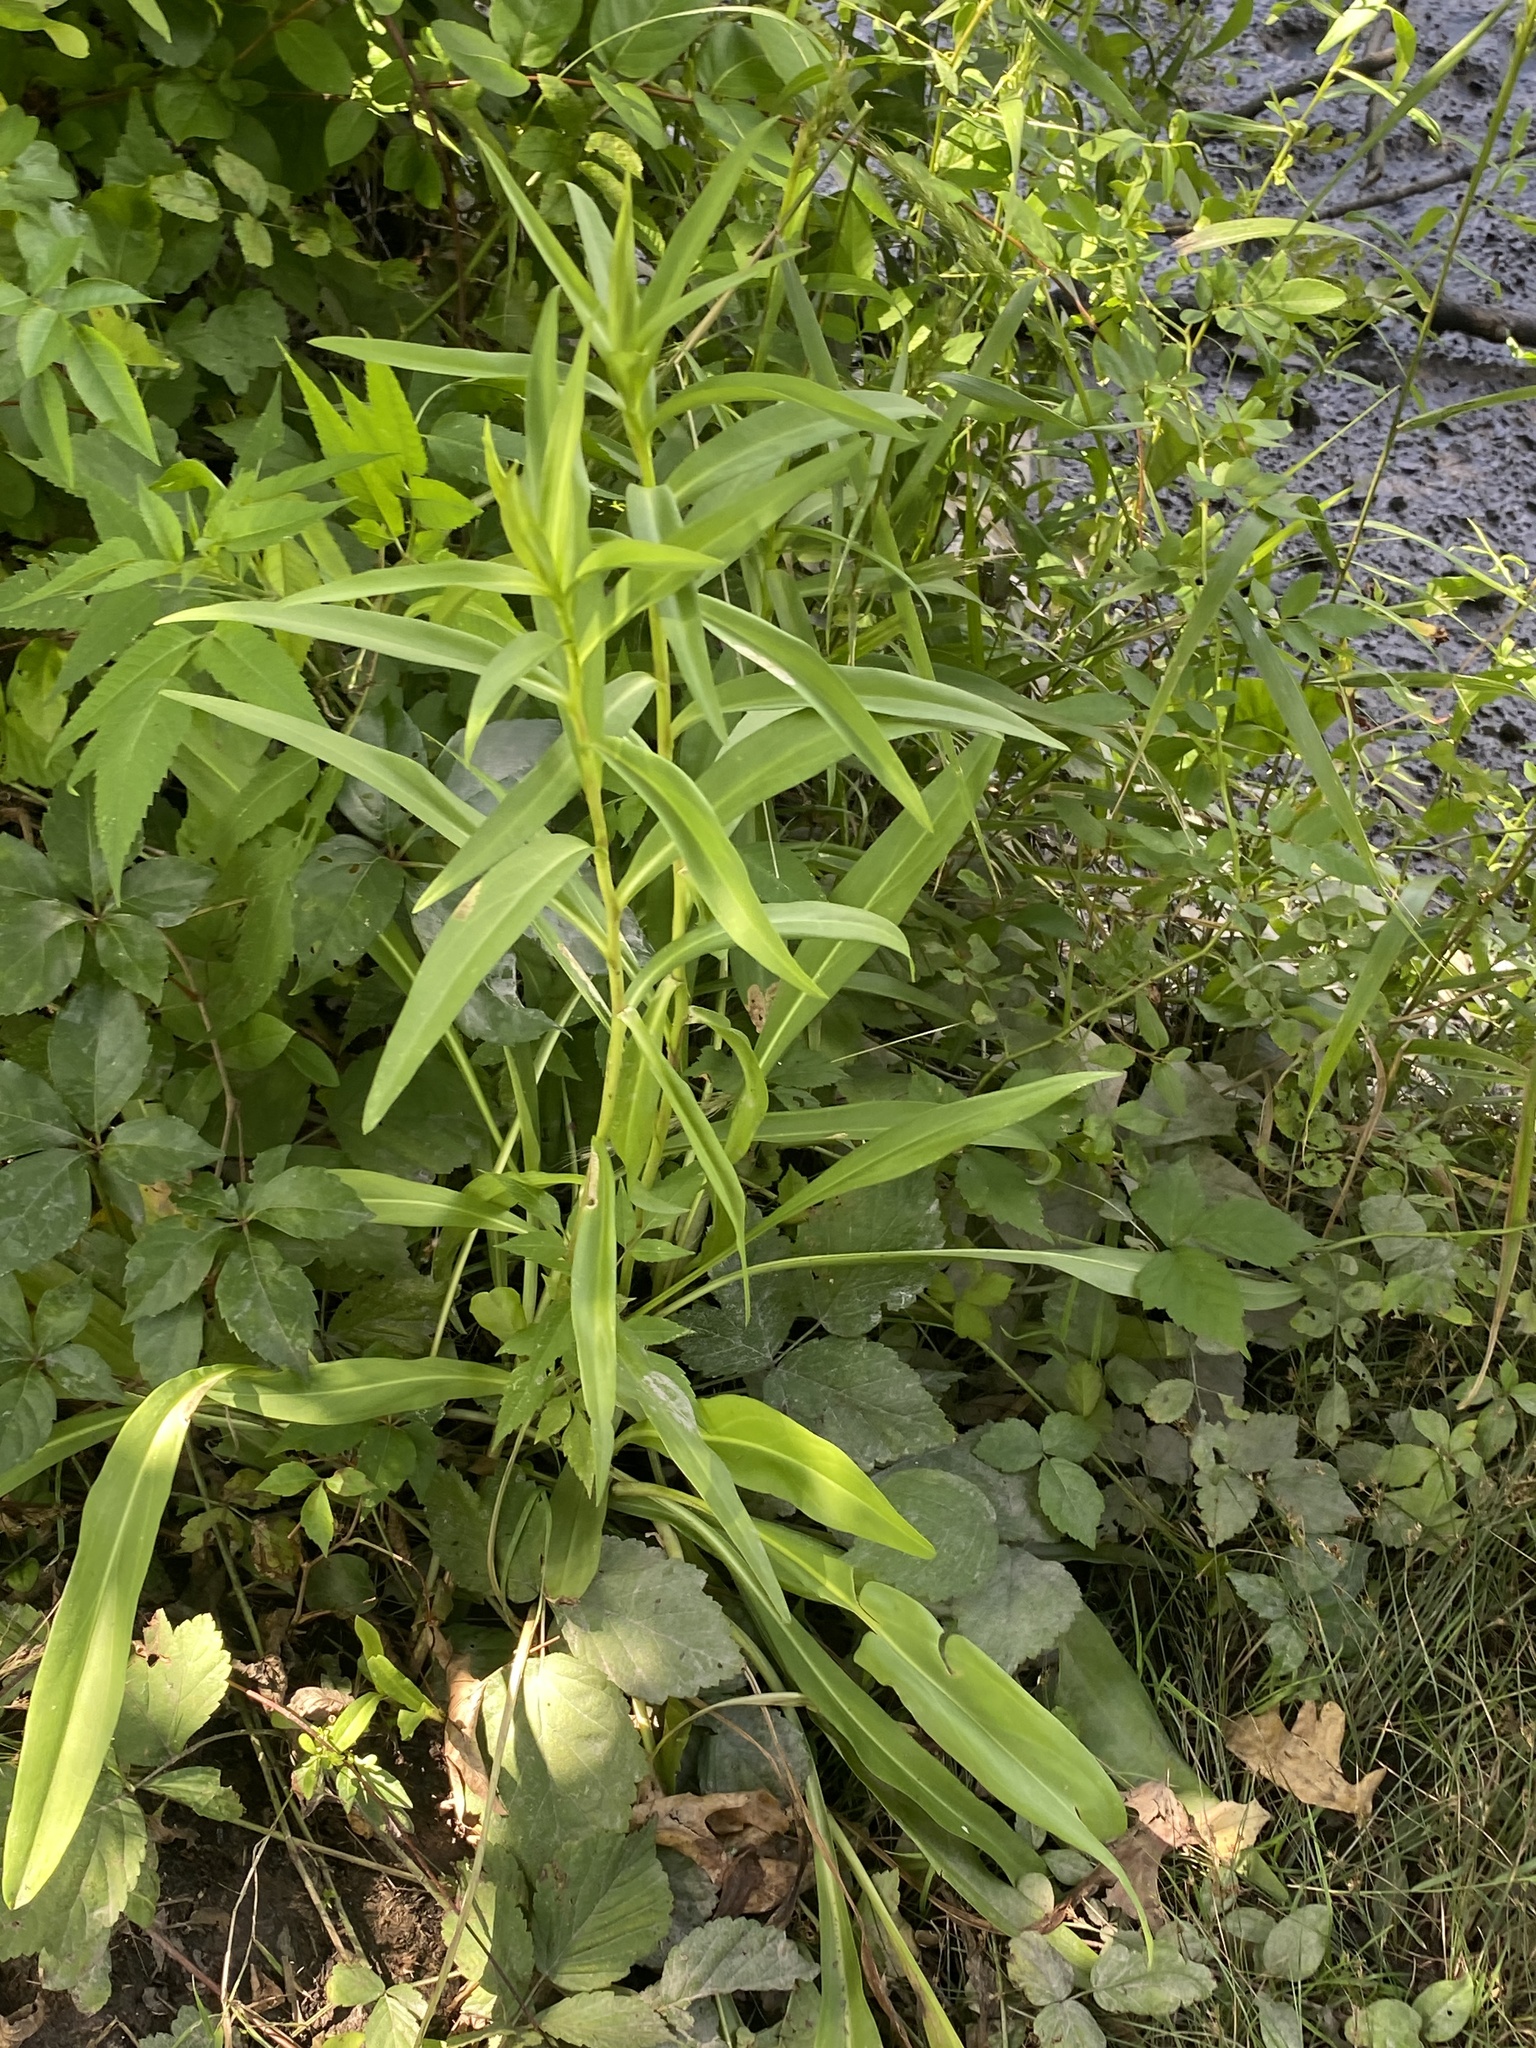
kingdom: Plantae
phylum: Tracheophyta
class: Magnoliopsida
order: Asterales
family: Asteraceae
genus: Solidago
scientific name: Solidago sempervirens
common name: Salt-marsh goldenrod
